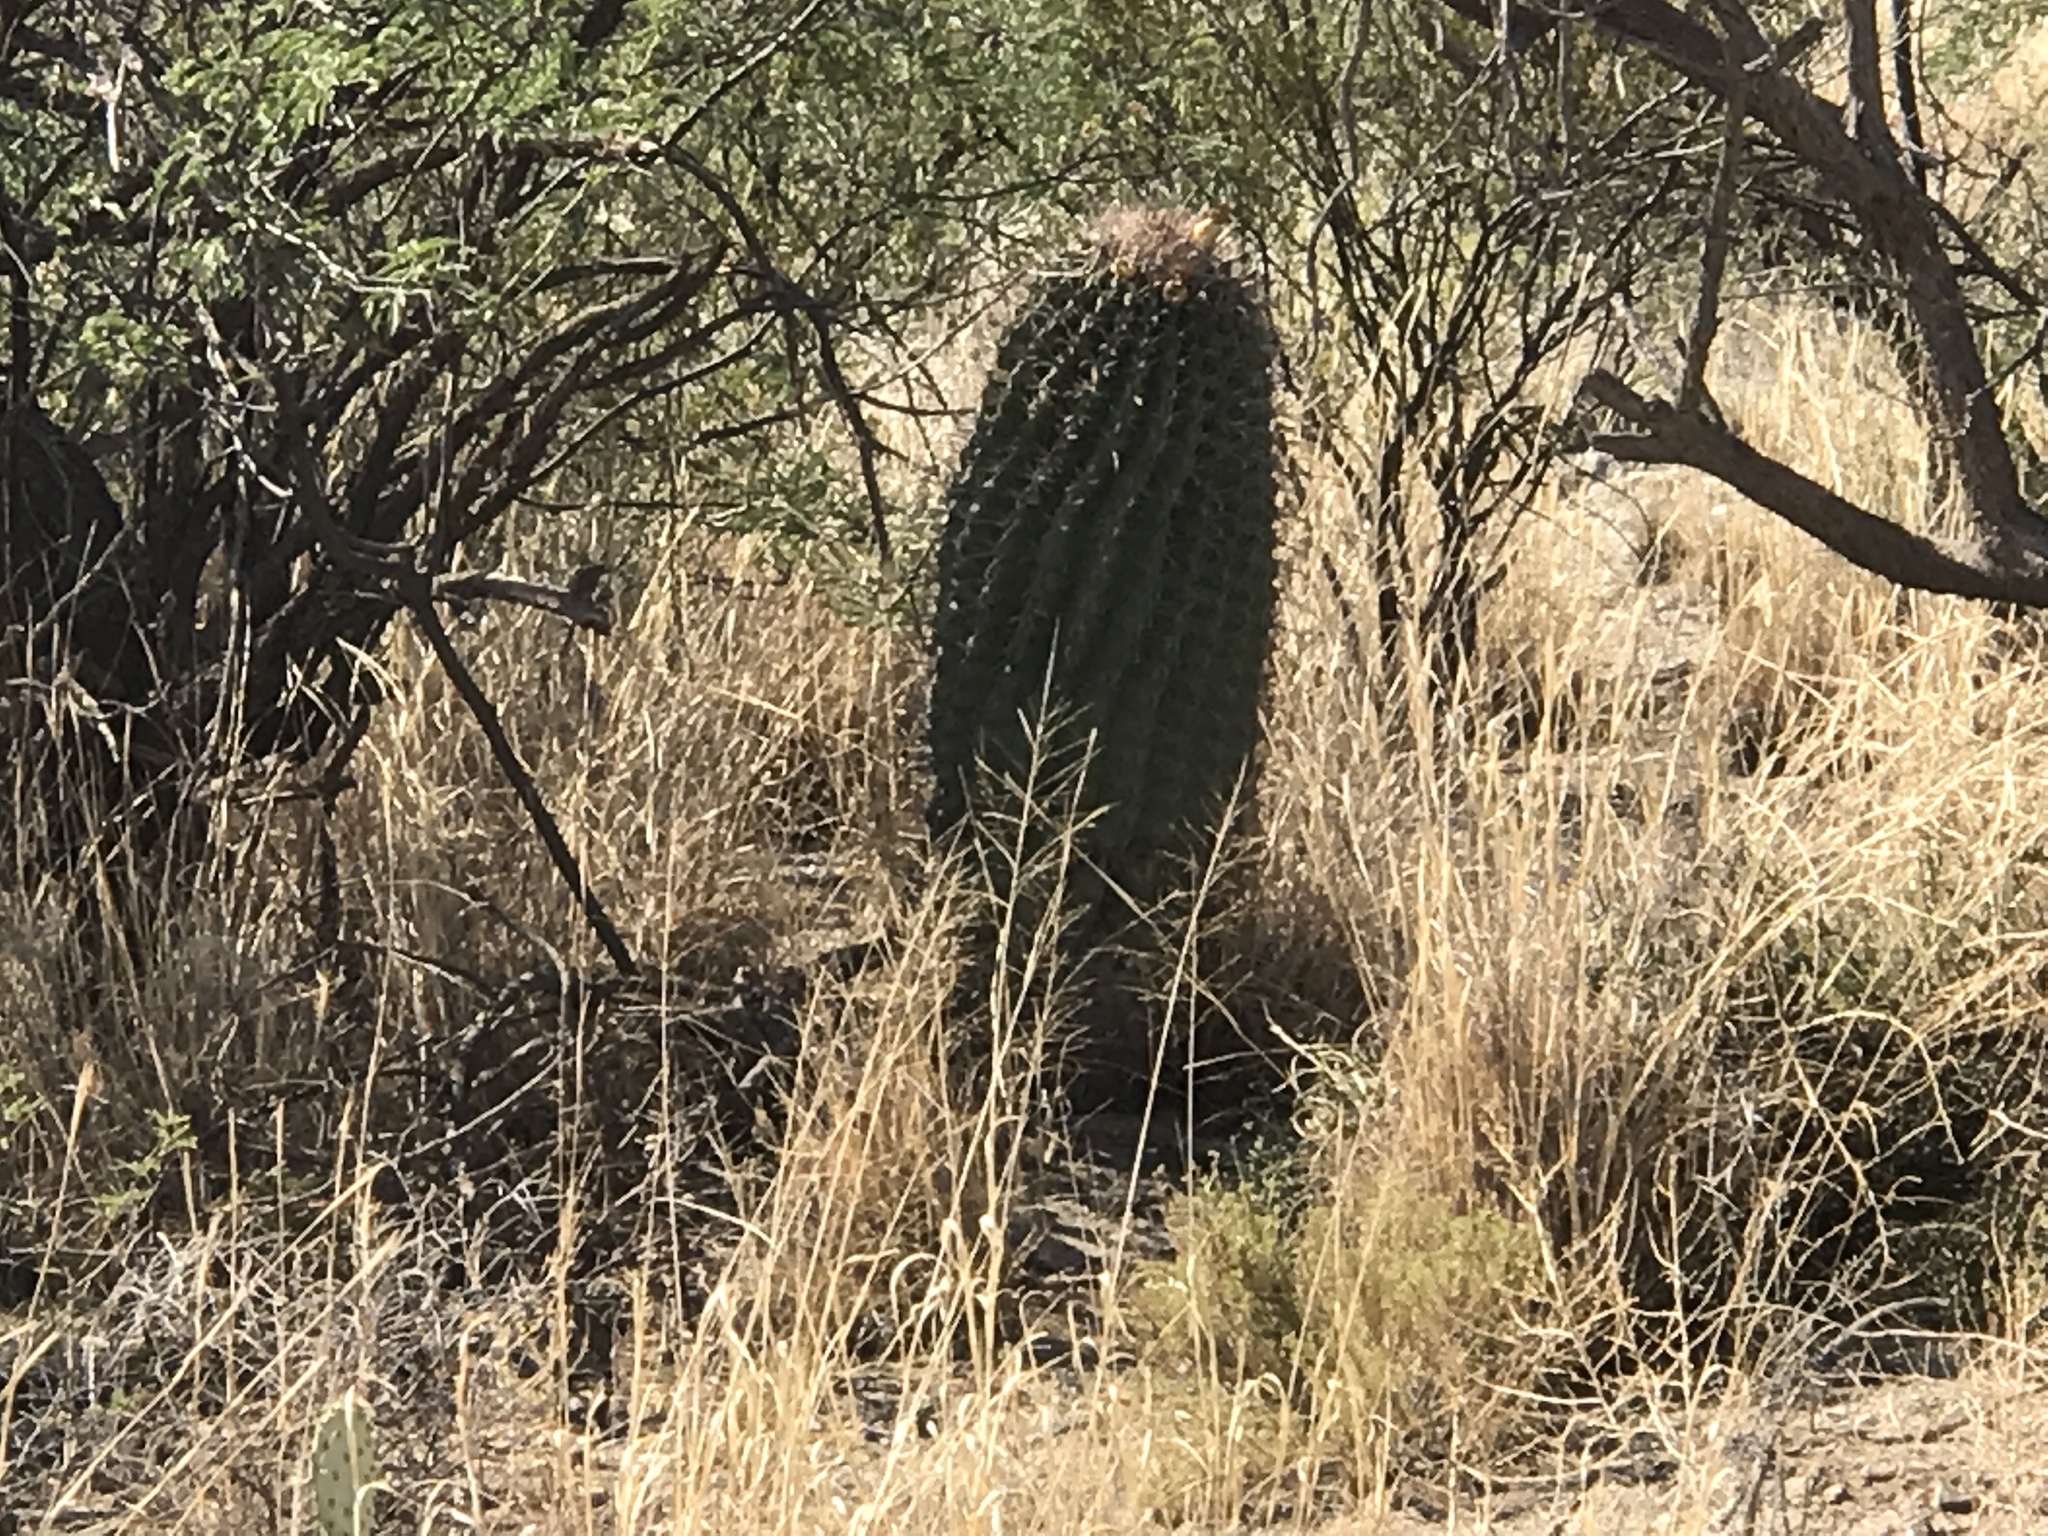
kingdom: Plantae
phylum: Tracheophyta
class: Magnoliopsida
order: Caryophyllales
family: Cactaceae
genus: Ferocactus
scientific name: Ferocactus wislizeni
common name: Candy barrel cactus
